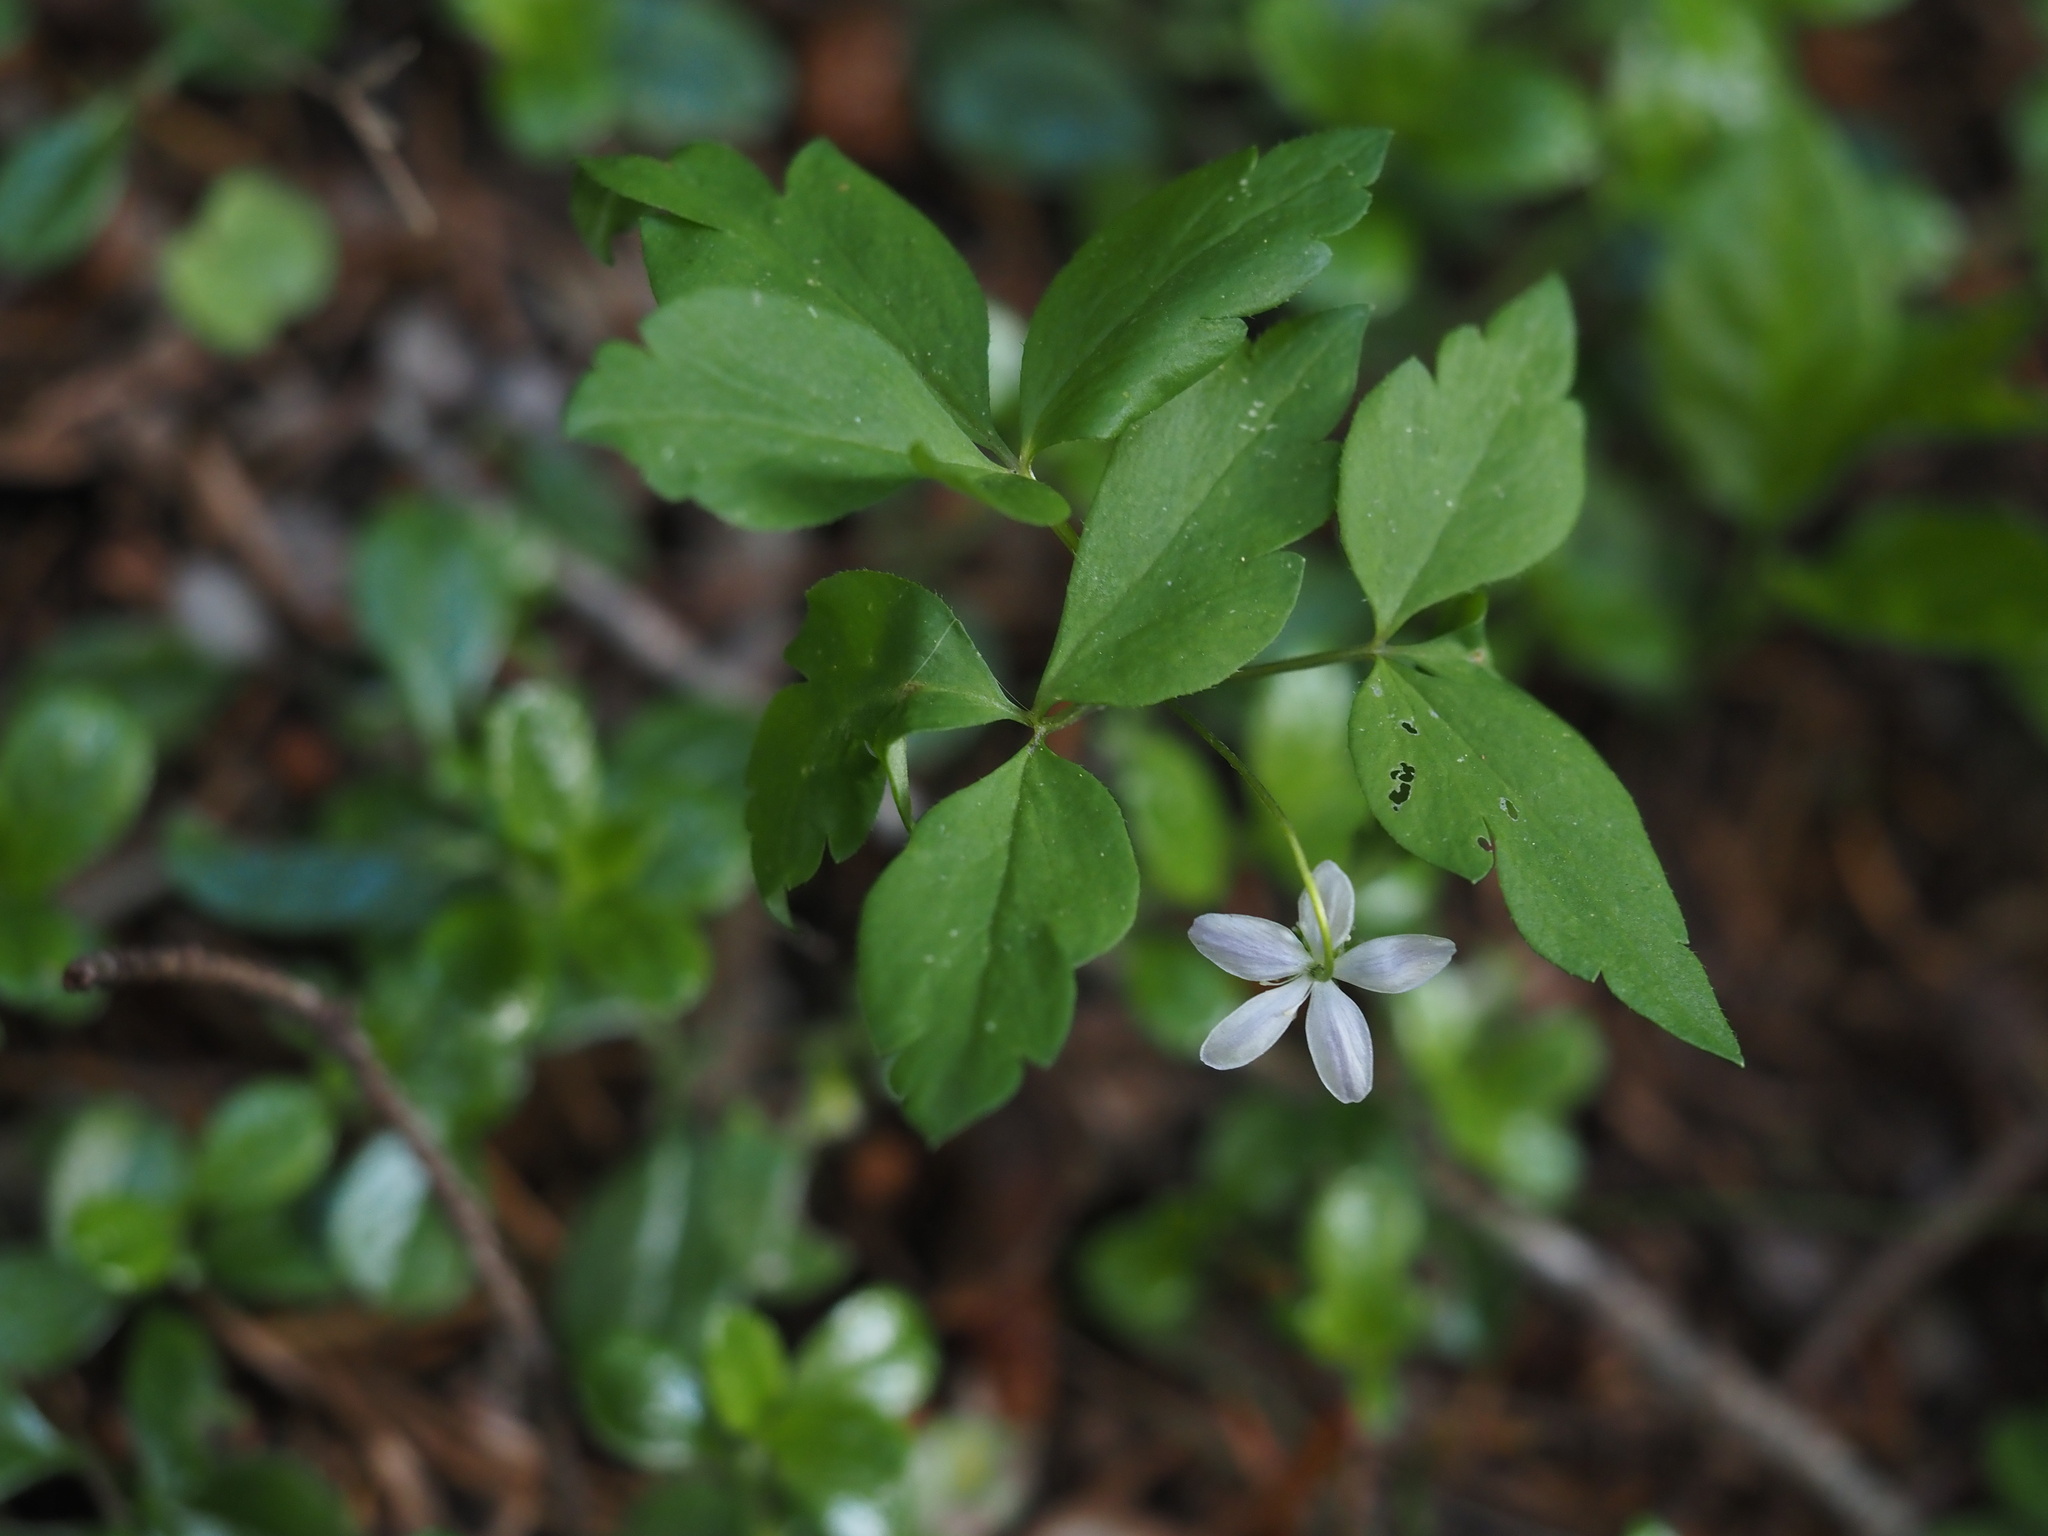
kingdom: Plantae
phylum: Tracheophyta
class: Magnoliopsida
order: Ranunculales
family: Ranunculaceae
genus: Anemone
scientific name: Anemone
